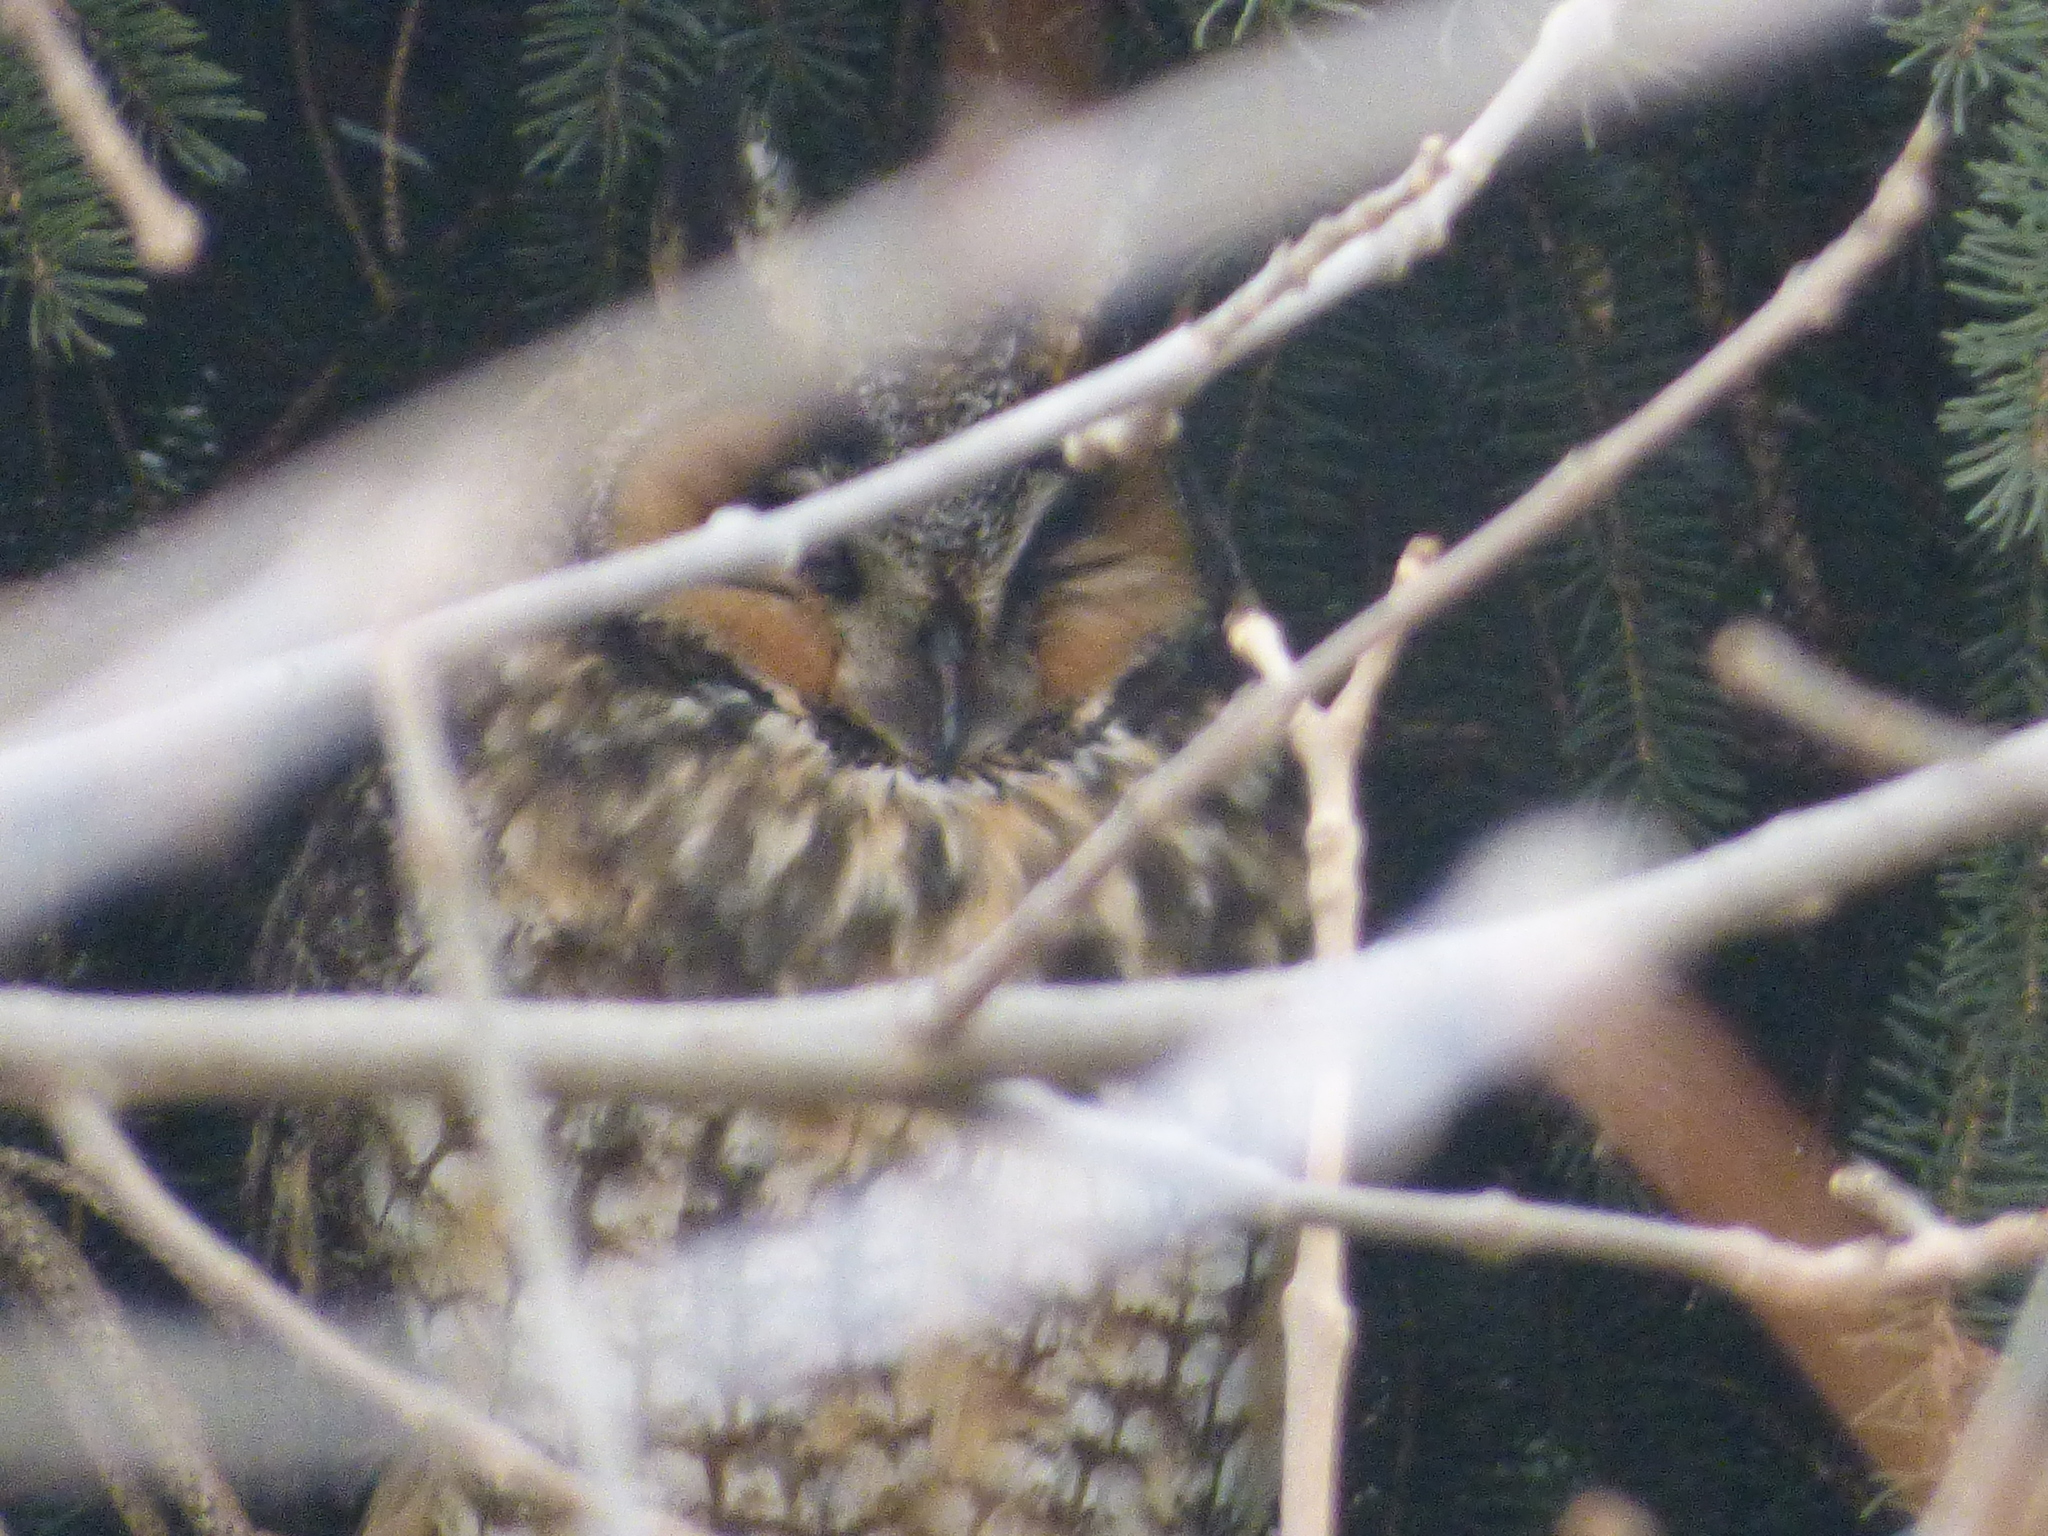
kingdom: Animalia
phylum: Chordata
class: Aves
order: Strigiformes
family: Strigidae
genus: Asio
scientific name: Asio otus
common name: Long-eared owl
